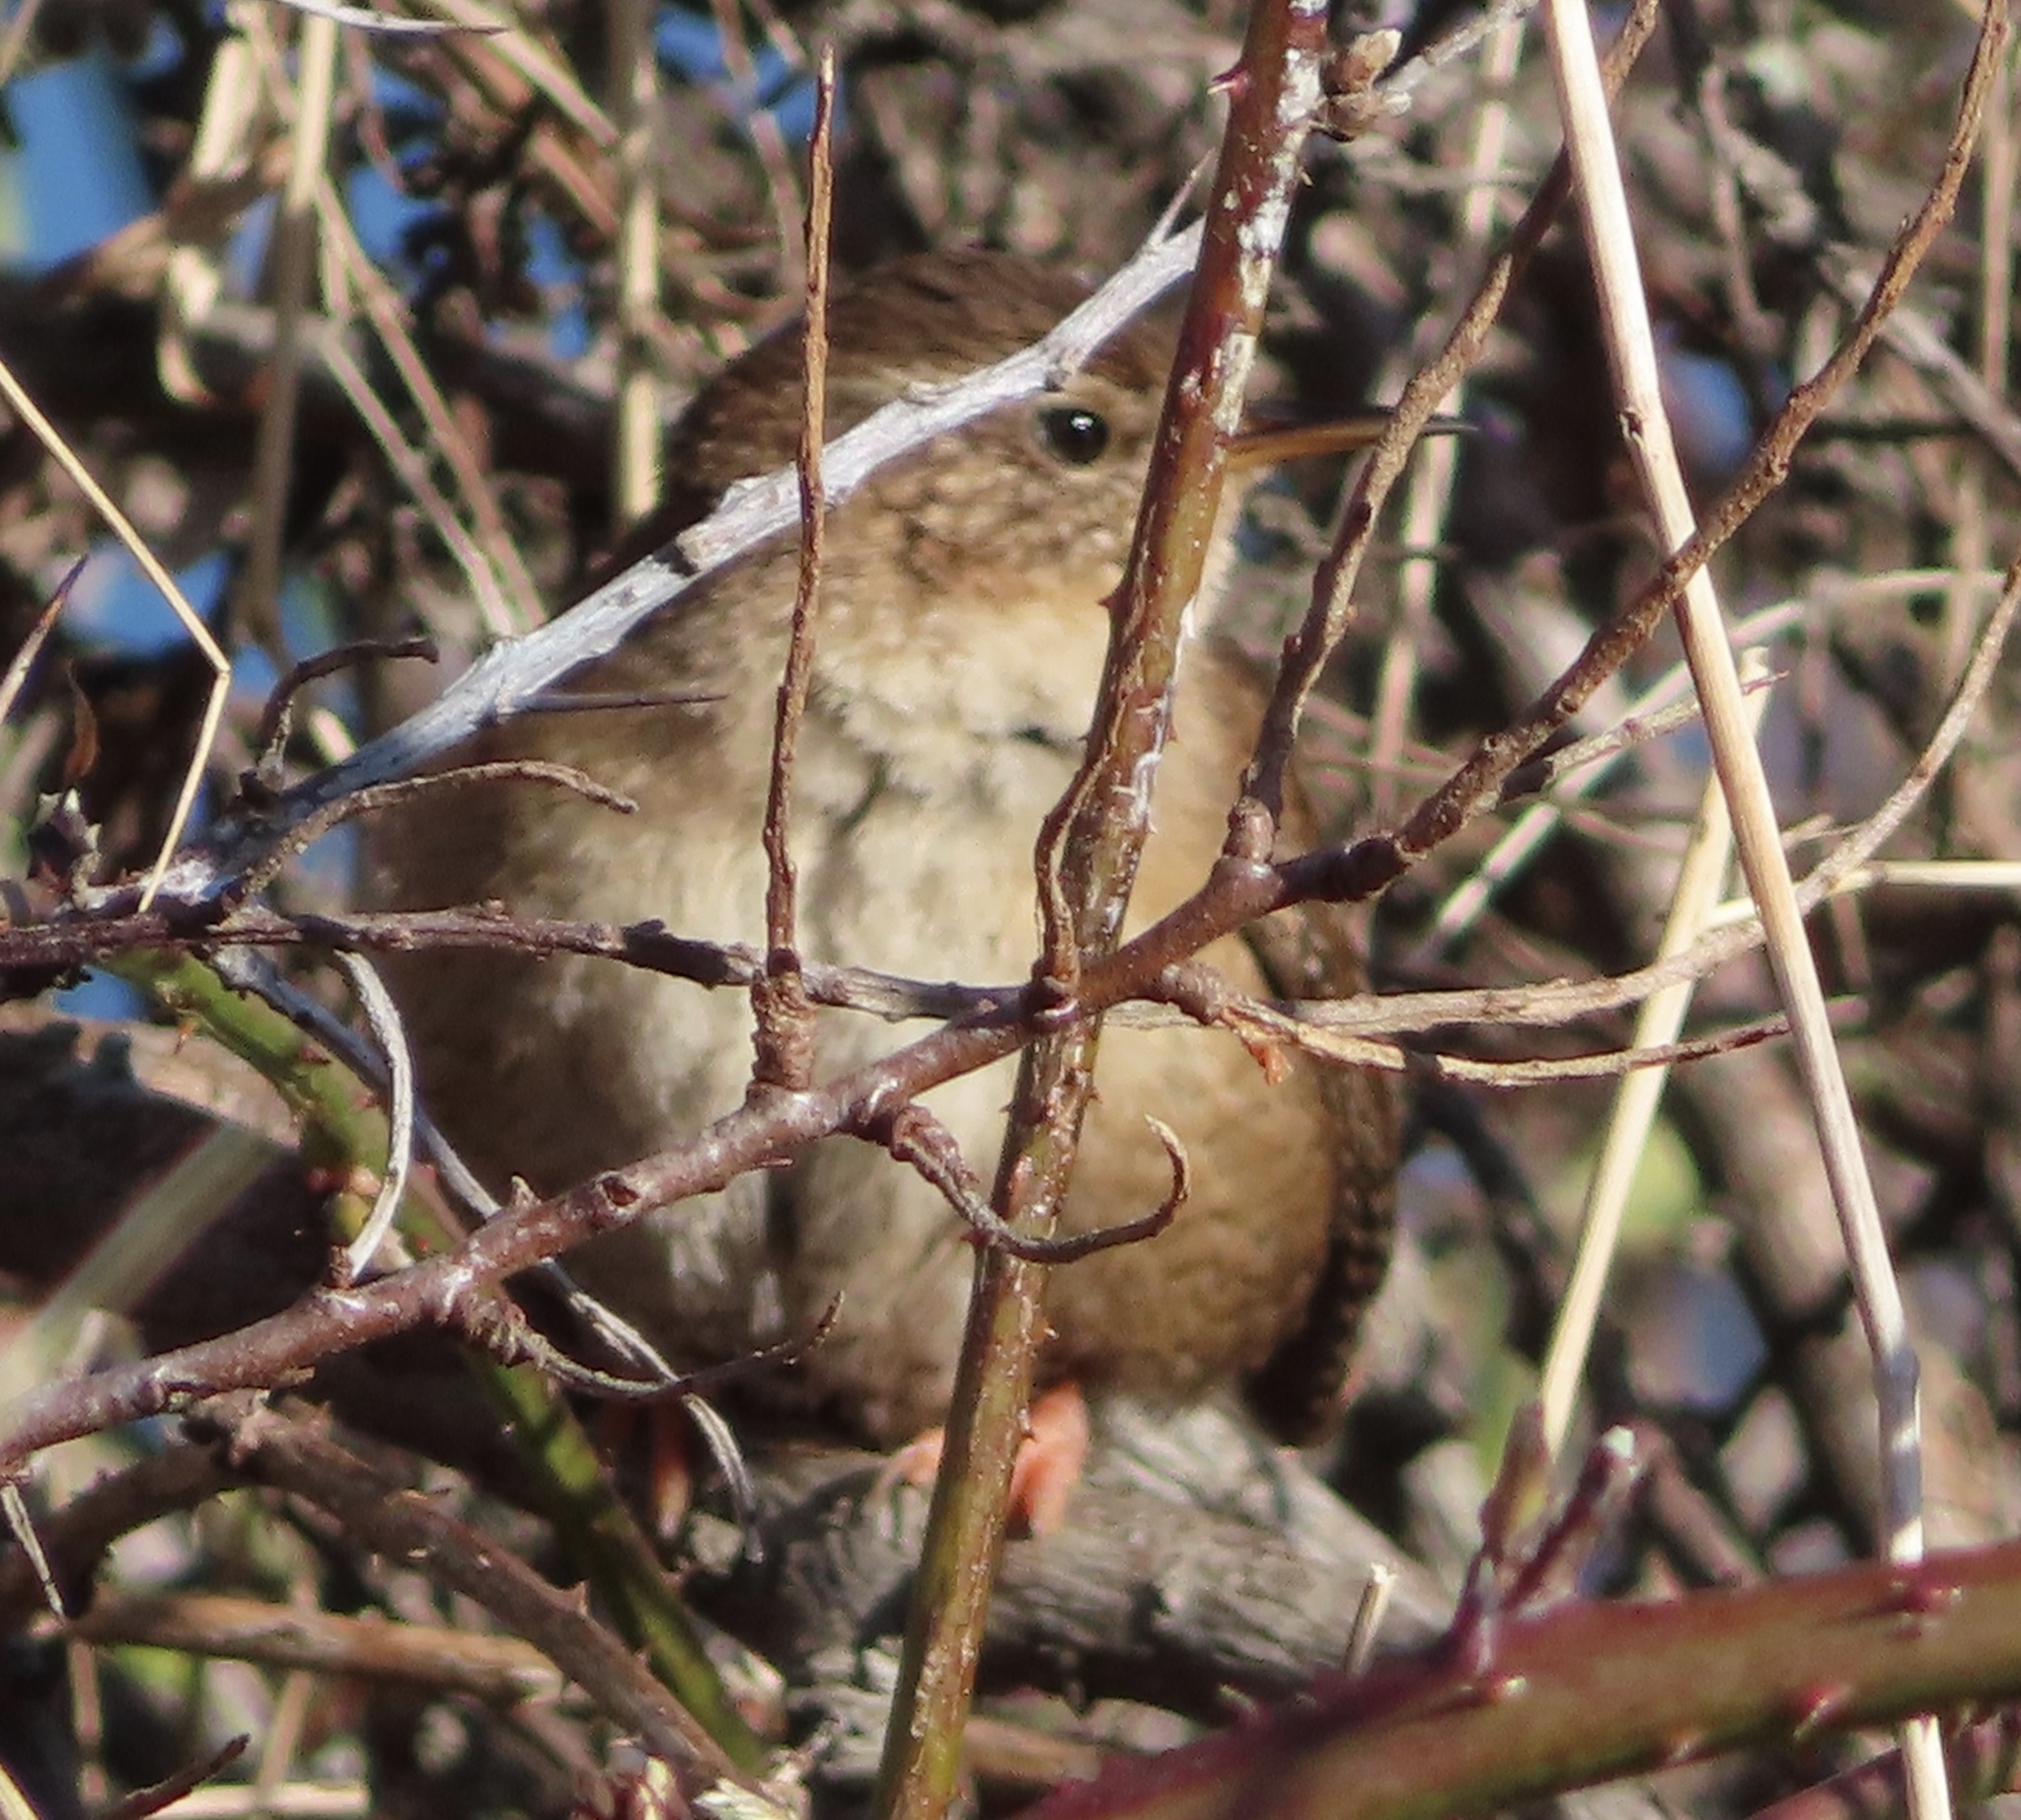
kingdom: Animalia
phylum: Chordata
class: Aves
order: Passeriformes
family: Troglodytidae
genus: Troglodytes
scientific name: Troglodytes troglodytes
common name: Eurasian wren
